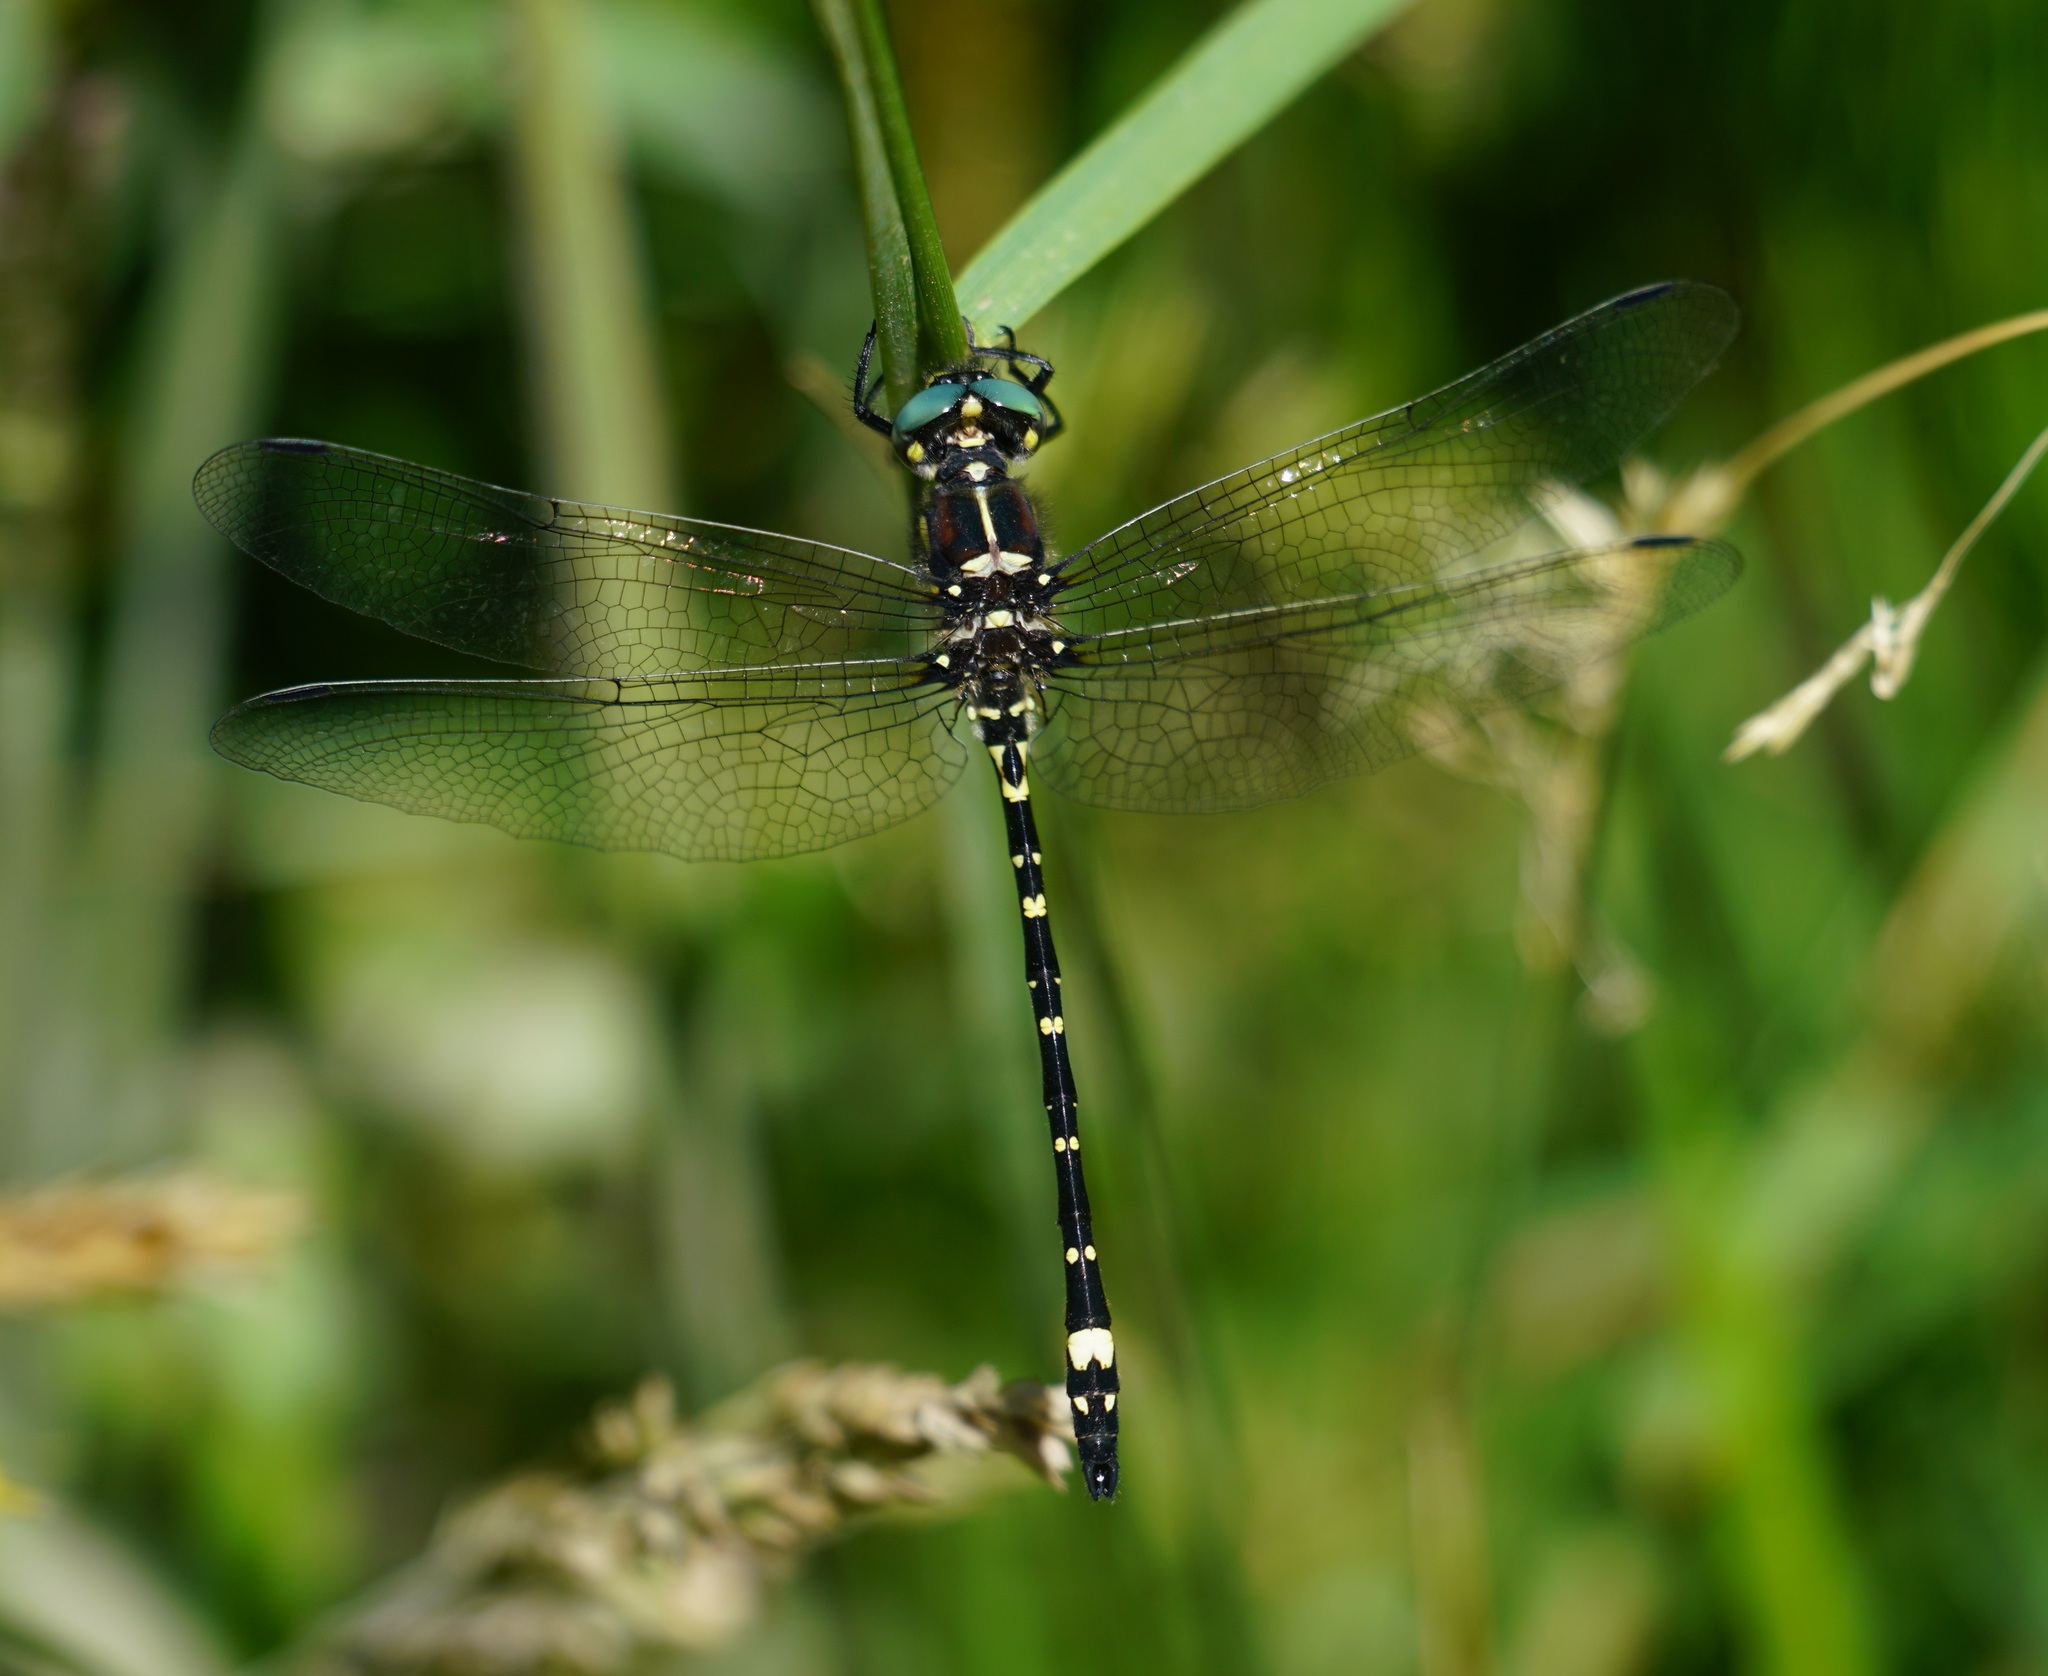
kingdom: Animalia
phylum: Arthropoda
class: Insecta
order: Odonata
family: Synthemistidae
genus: Eusynthemis
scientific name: Eusynthemis brevistyla
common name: Small tigertail
